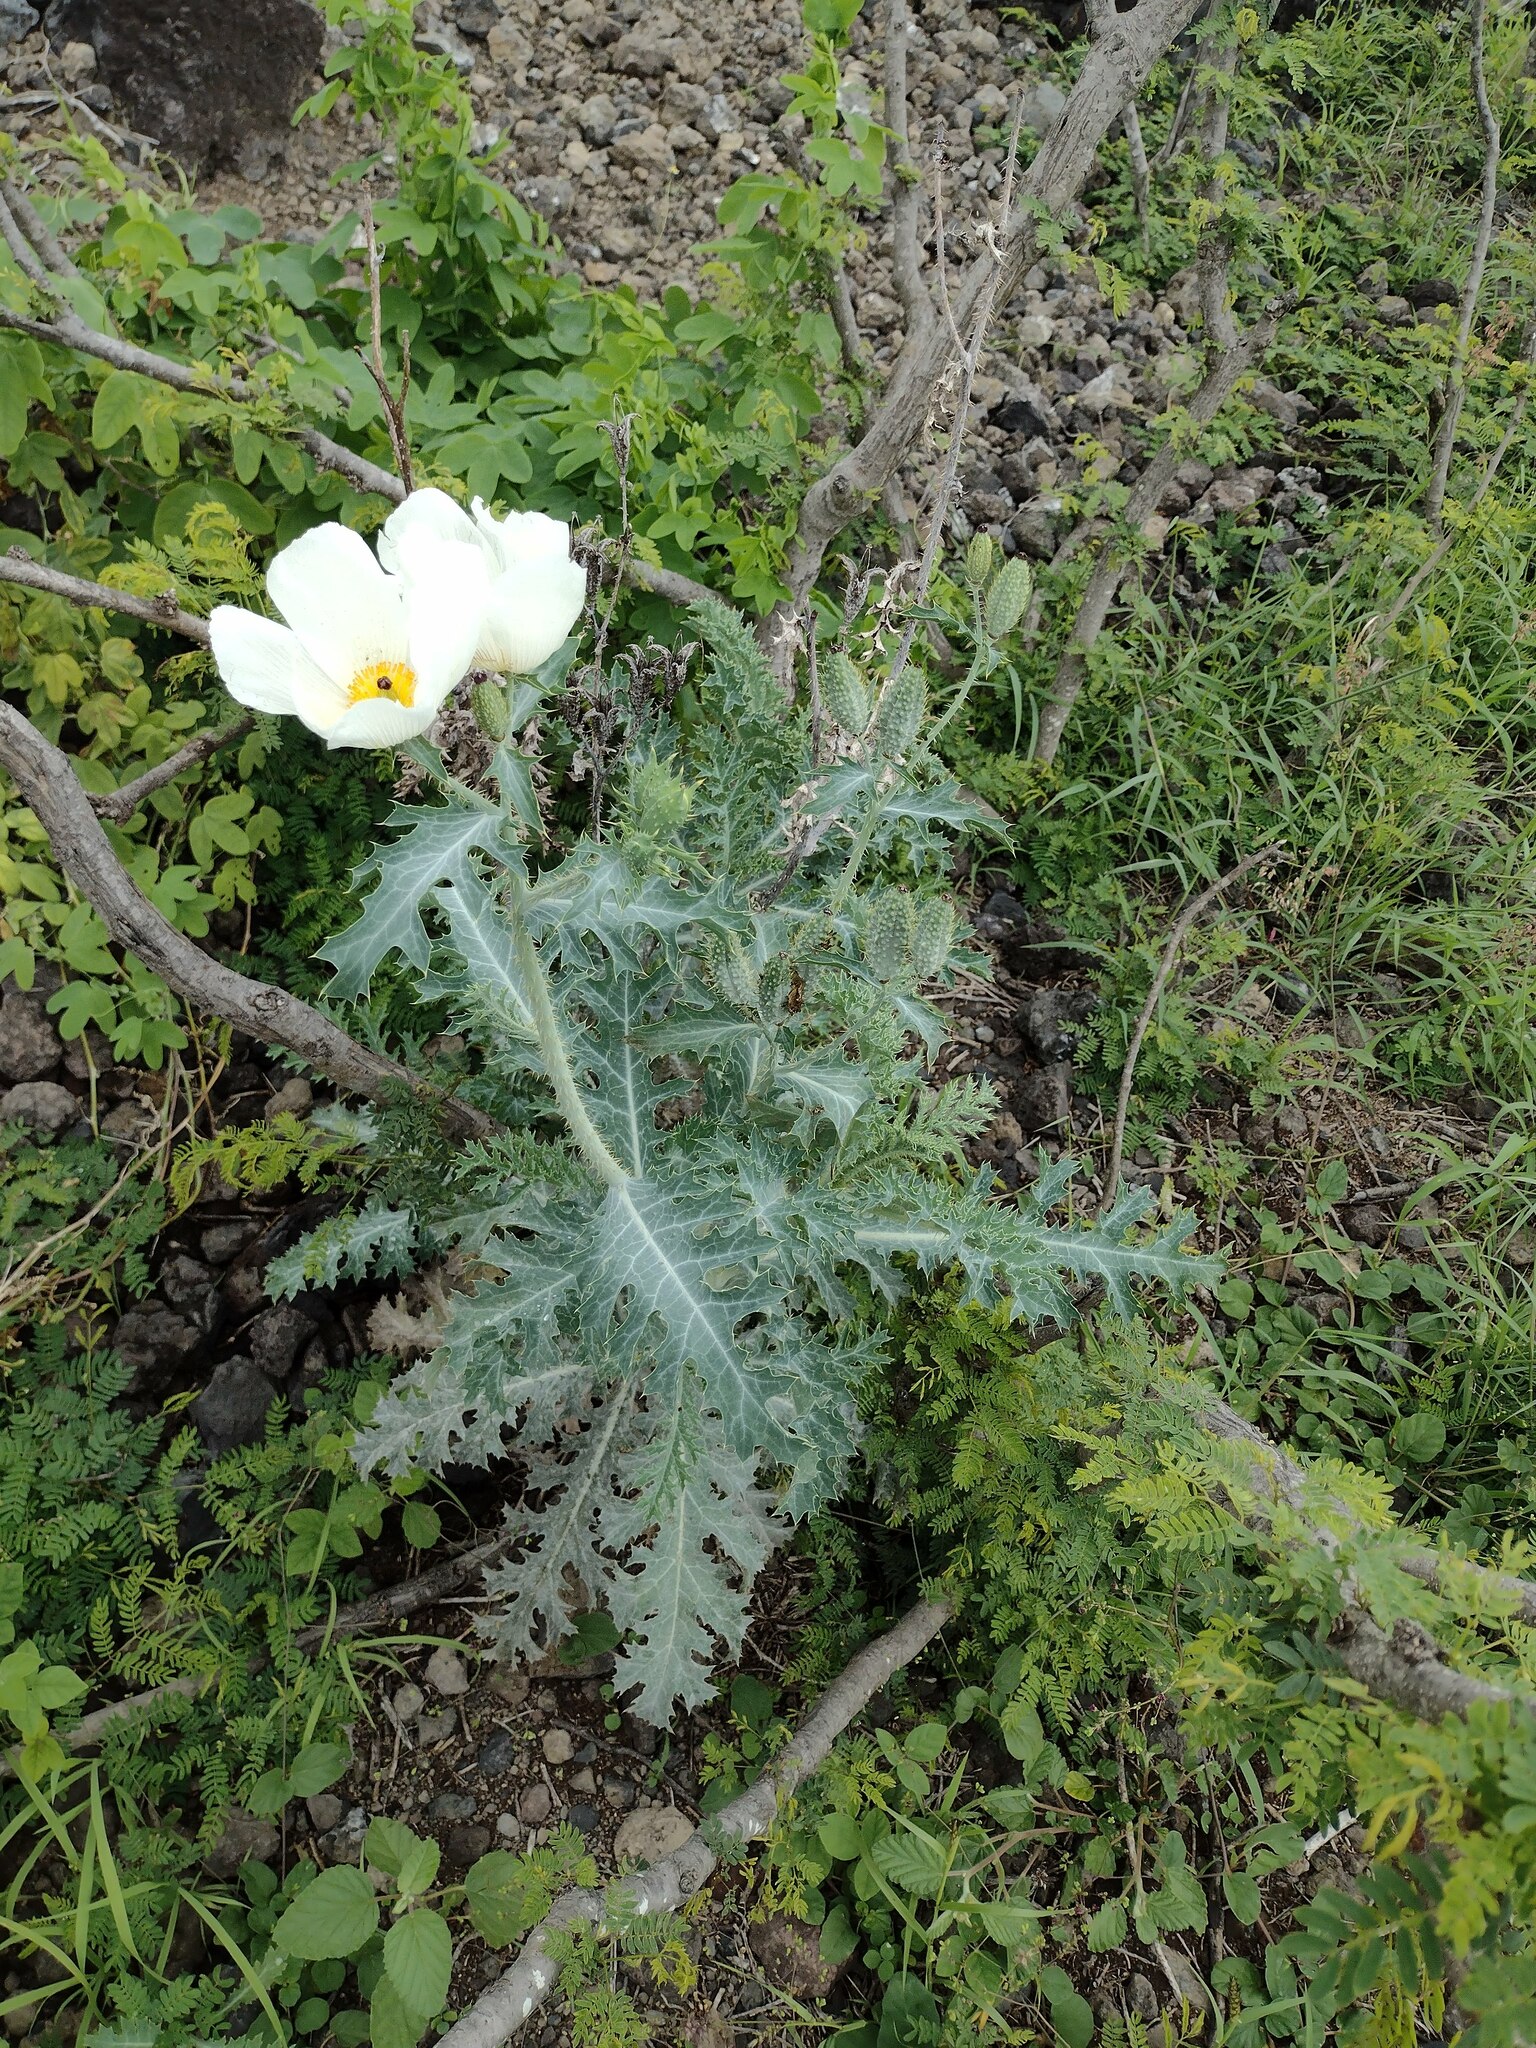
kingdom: Plantae
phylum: Tracheophyta
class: Magnoliopsida
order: Ranunculales
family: Papaveraceae
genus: Argemone
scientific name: Argemone glauca
